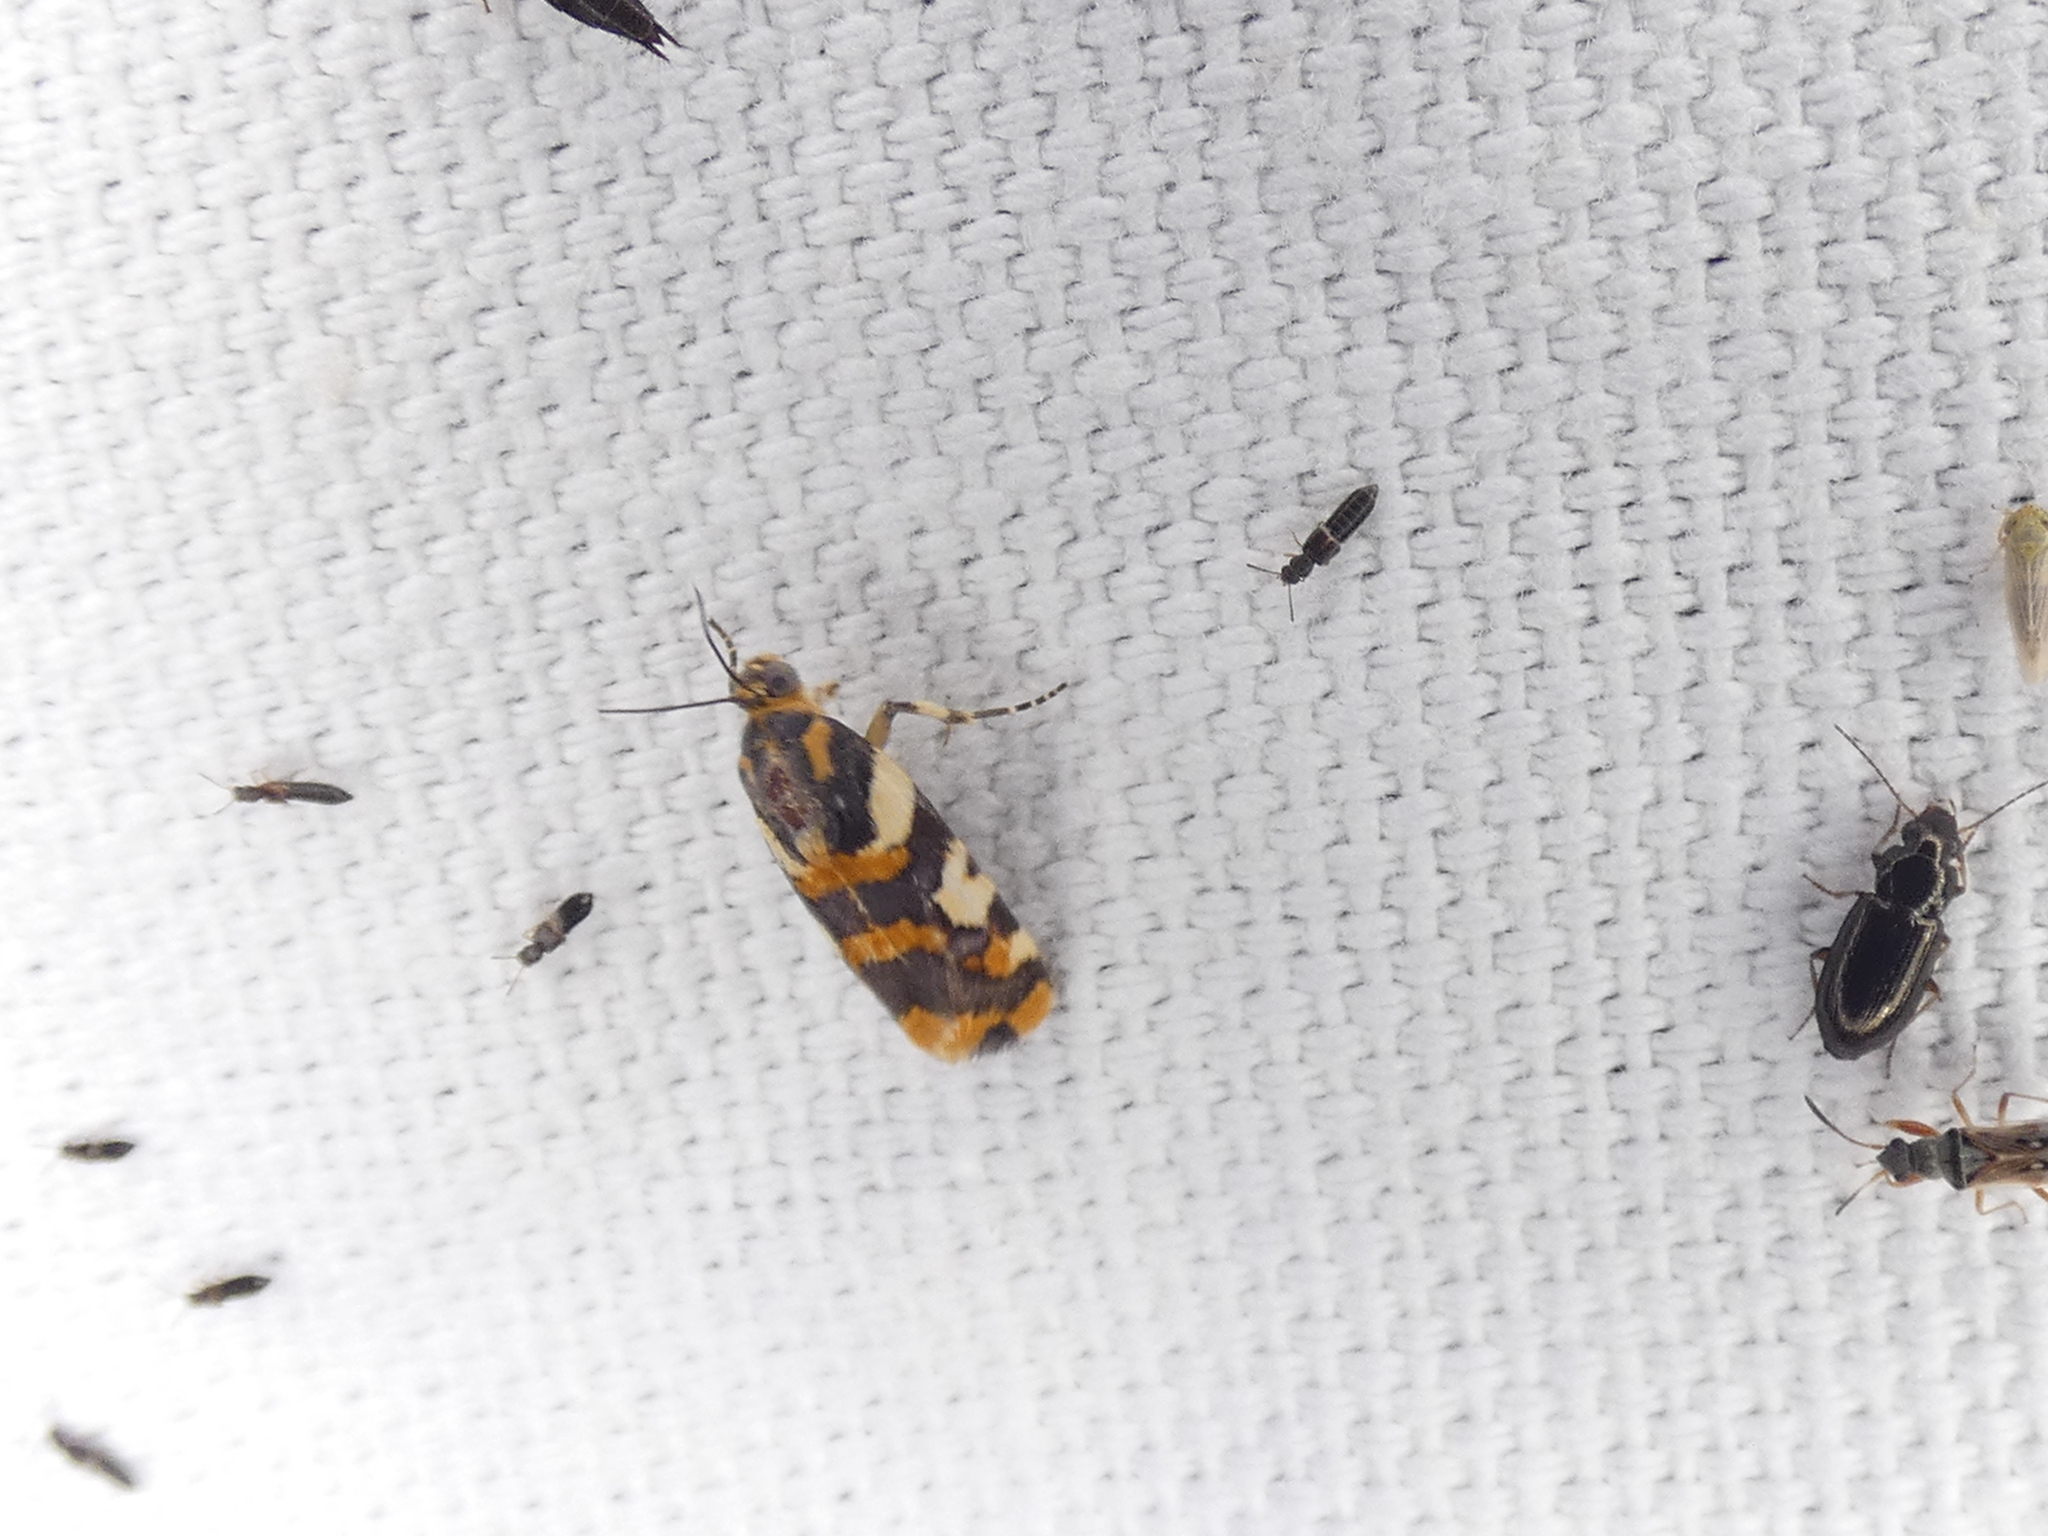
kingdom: Animalia
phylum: Arthropoda
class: Insecta
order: Lepidoptera
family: Noctuidae
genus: Acontia
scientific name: Acontia dama
